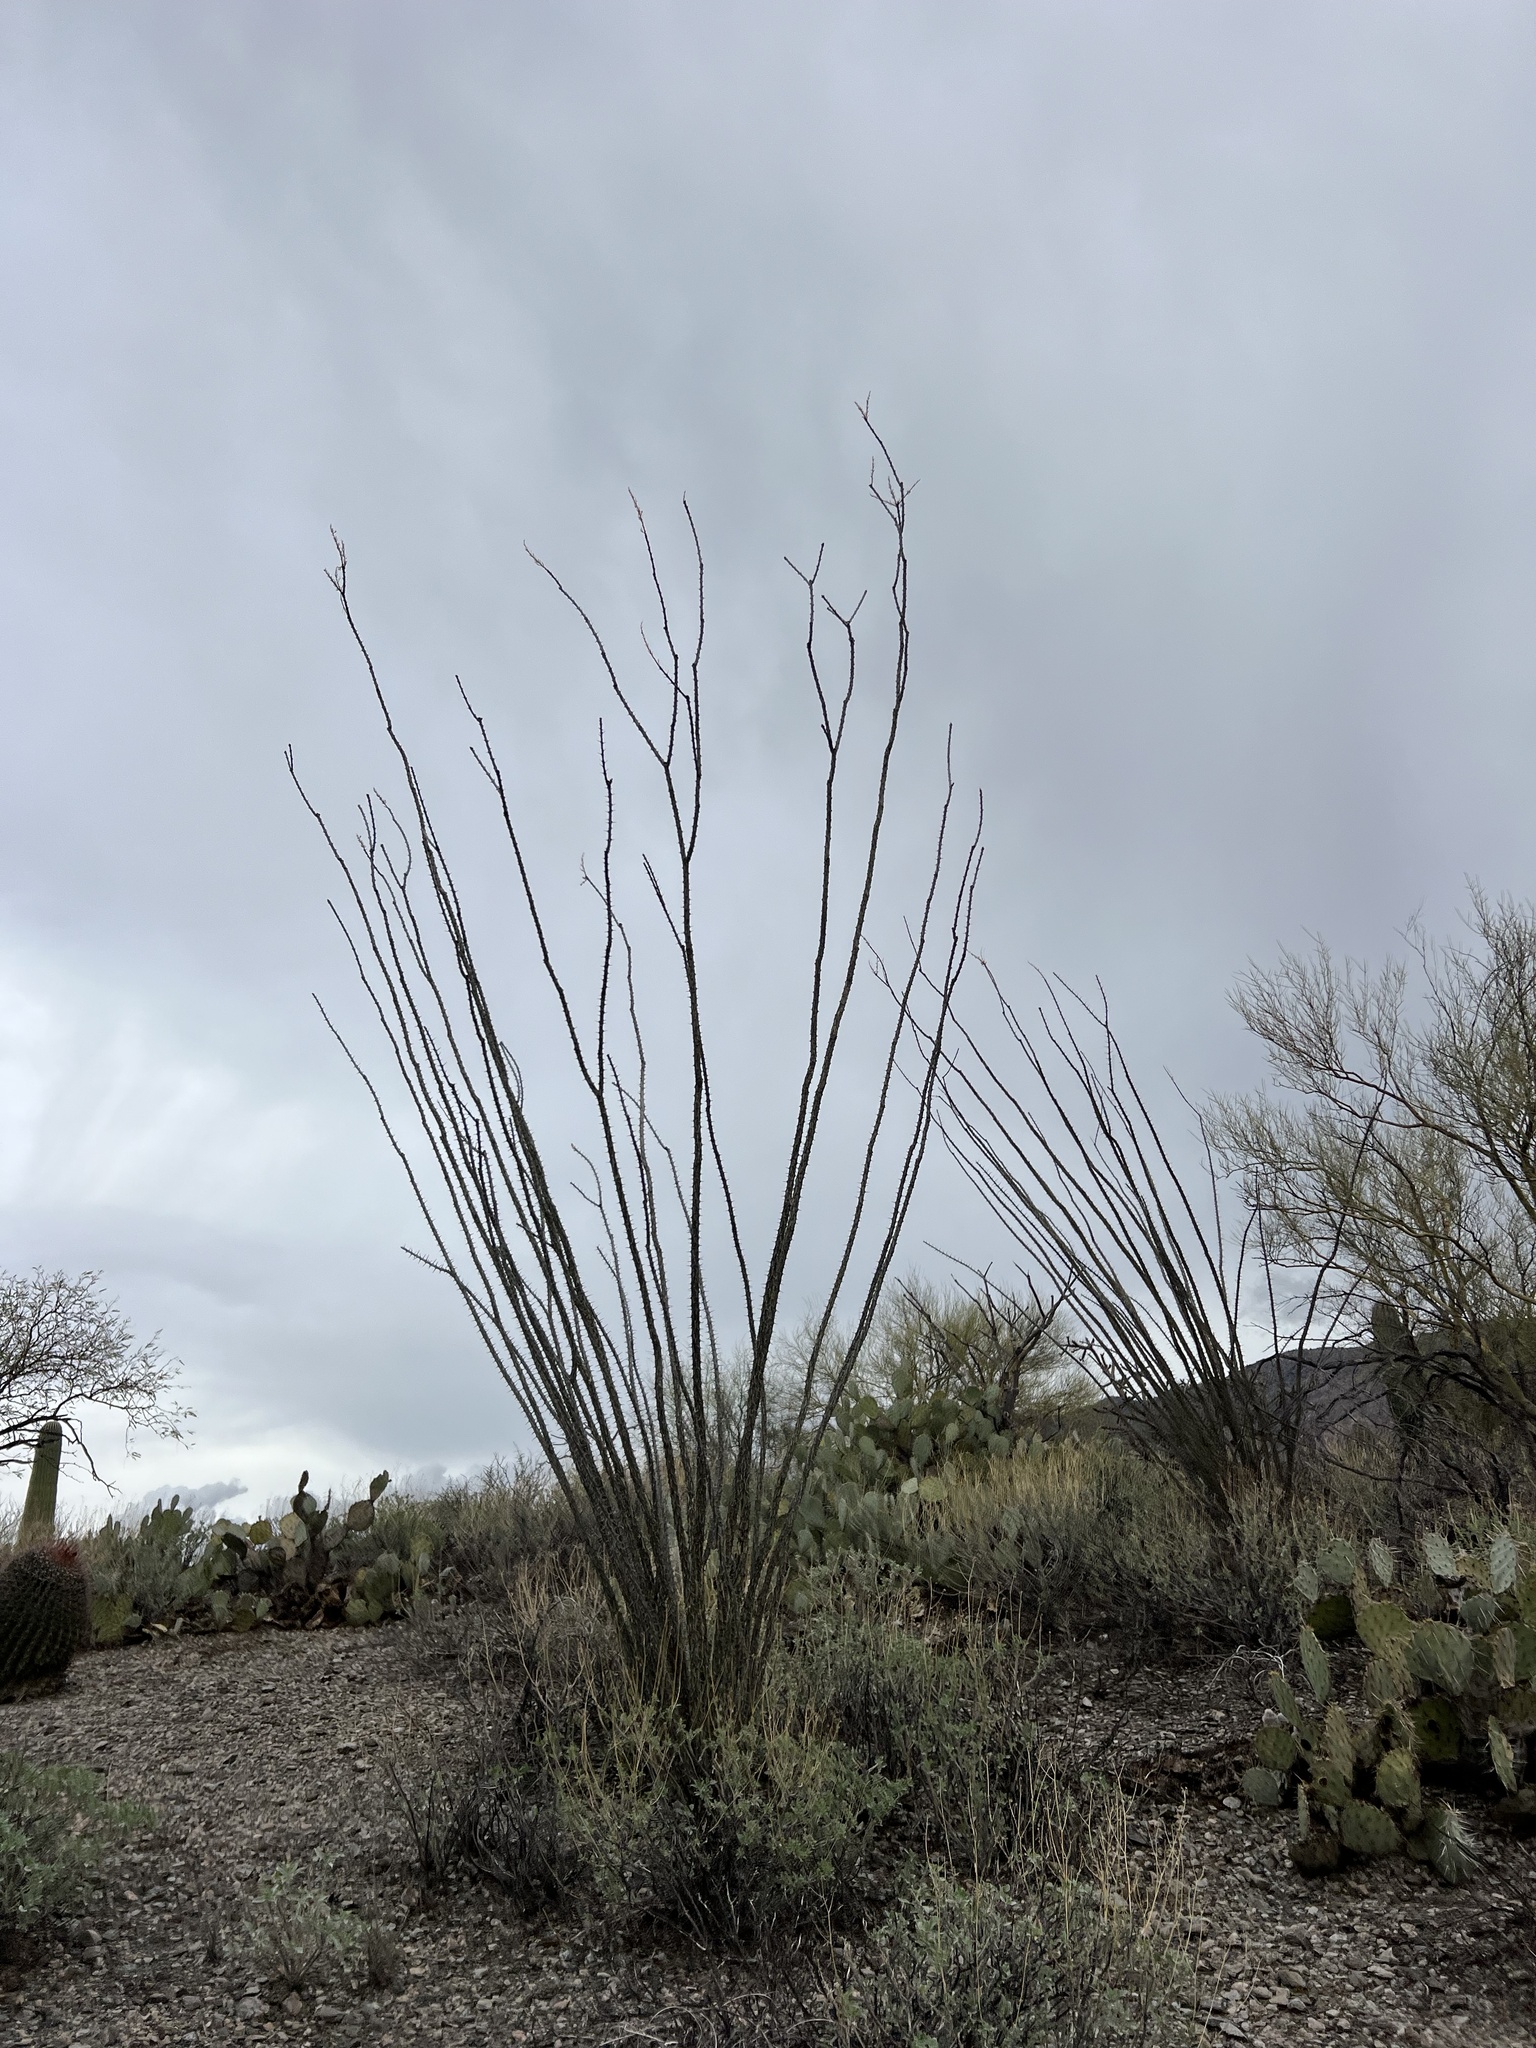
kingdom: Plantae
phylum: Tracheophyta
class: Magnoliopsida
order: Ericales
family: Fouquieriaceae
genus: Fouquieria
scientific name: Fouquieria splendens
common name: Vine-cactus
